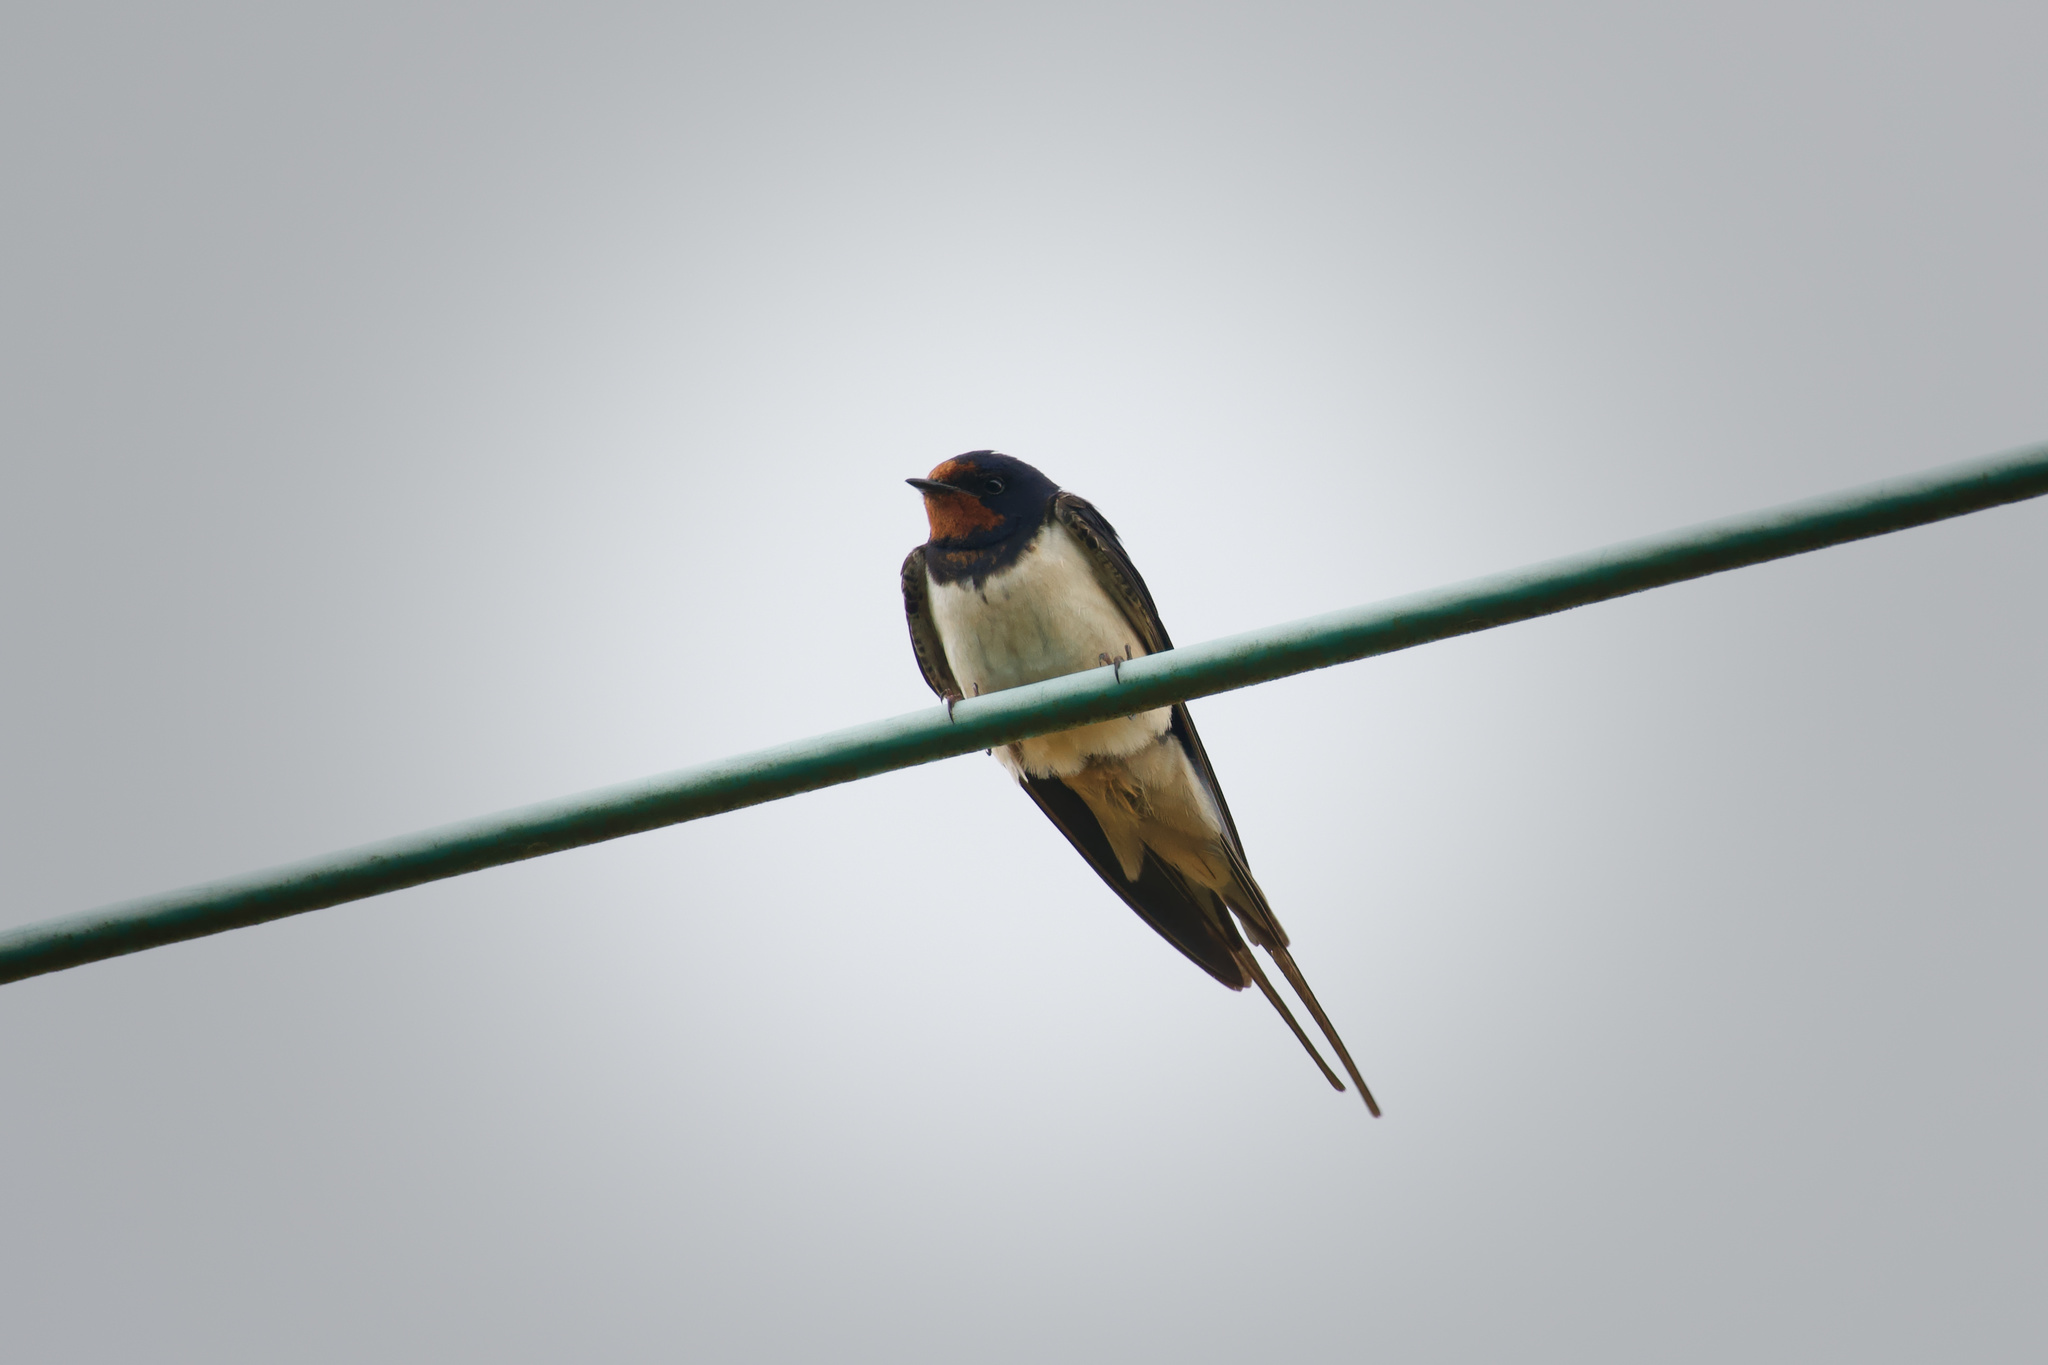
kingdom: Animalia
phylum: Chordata
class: Aves
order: Passeriformes
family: Hirundinidae
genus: Hirundo
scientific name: Hirundo rustica
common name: Barn swallow
